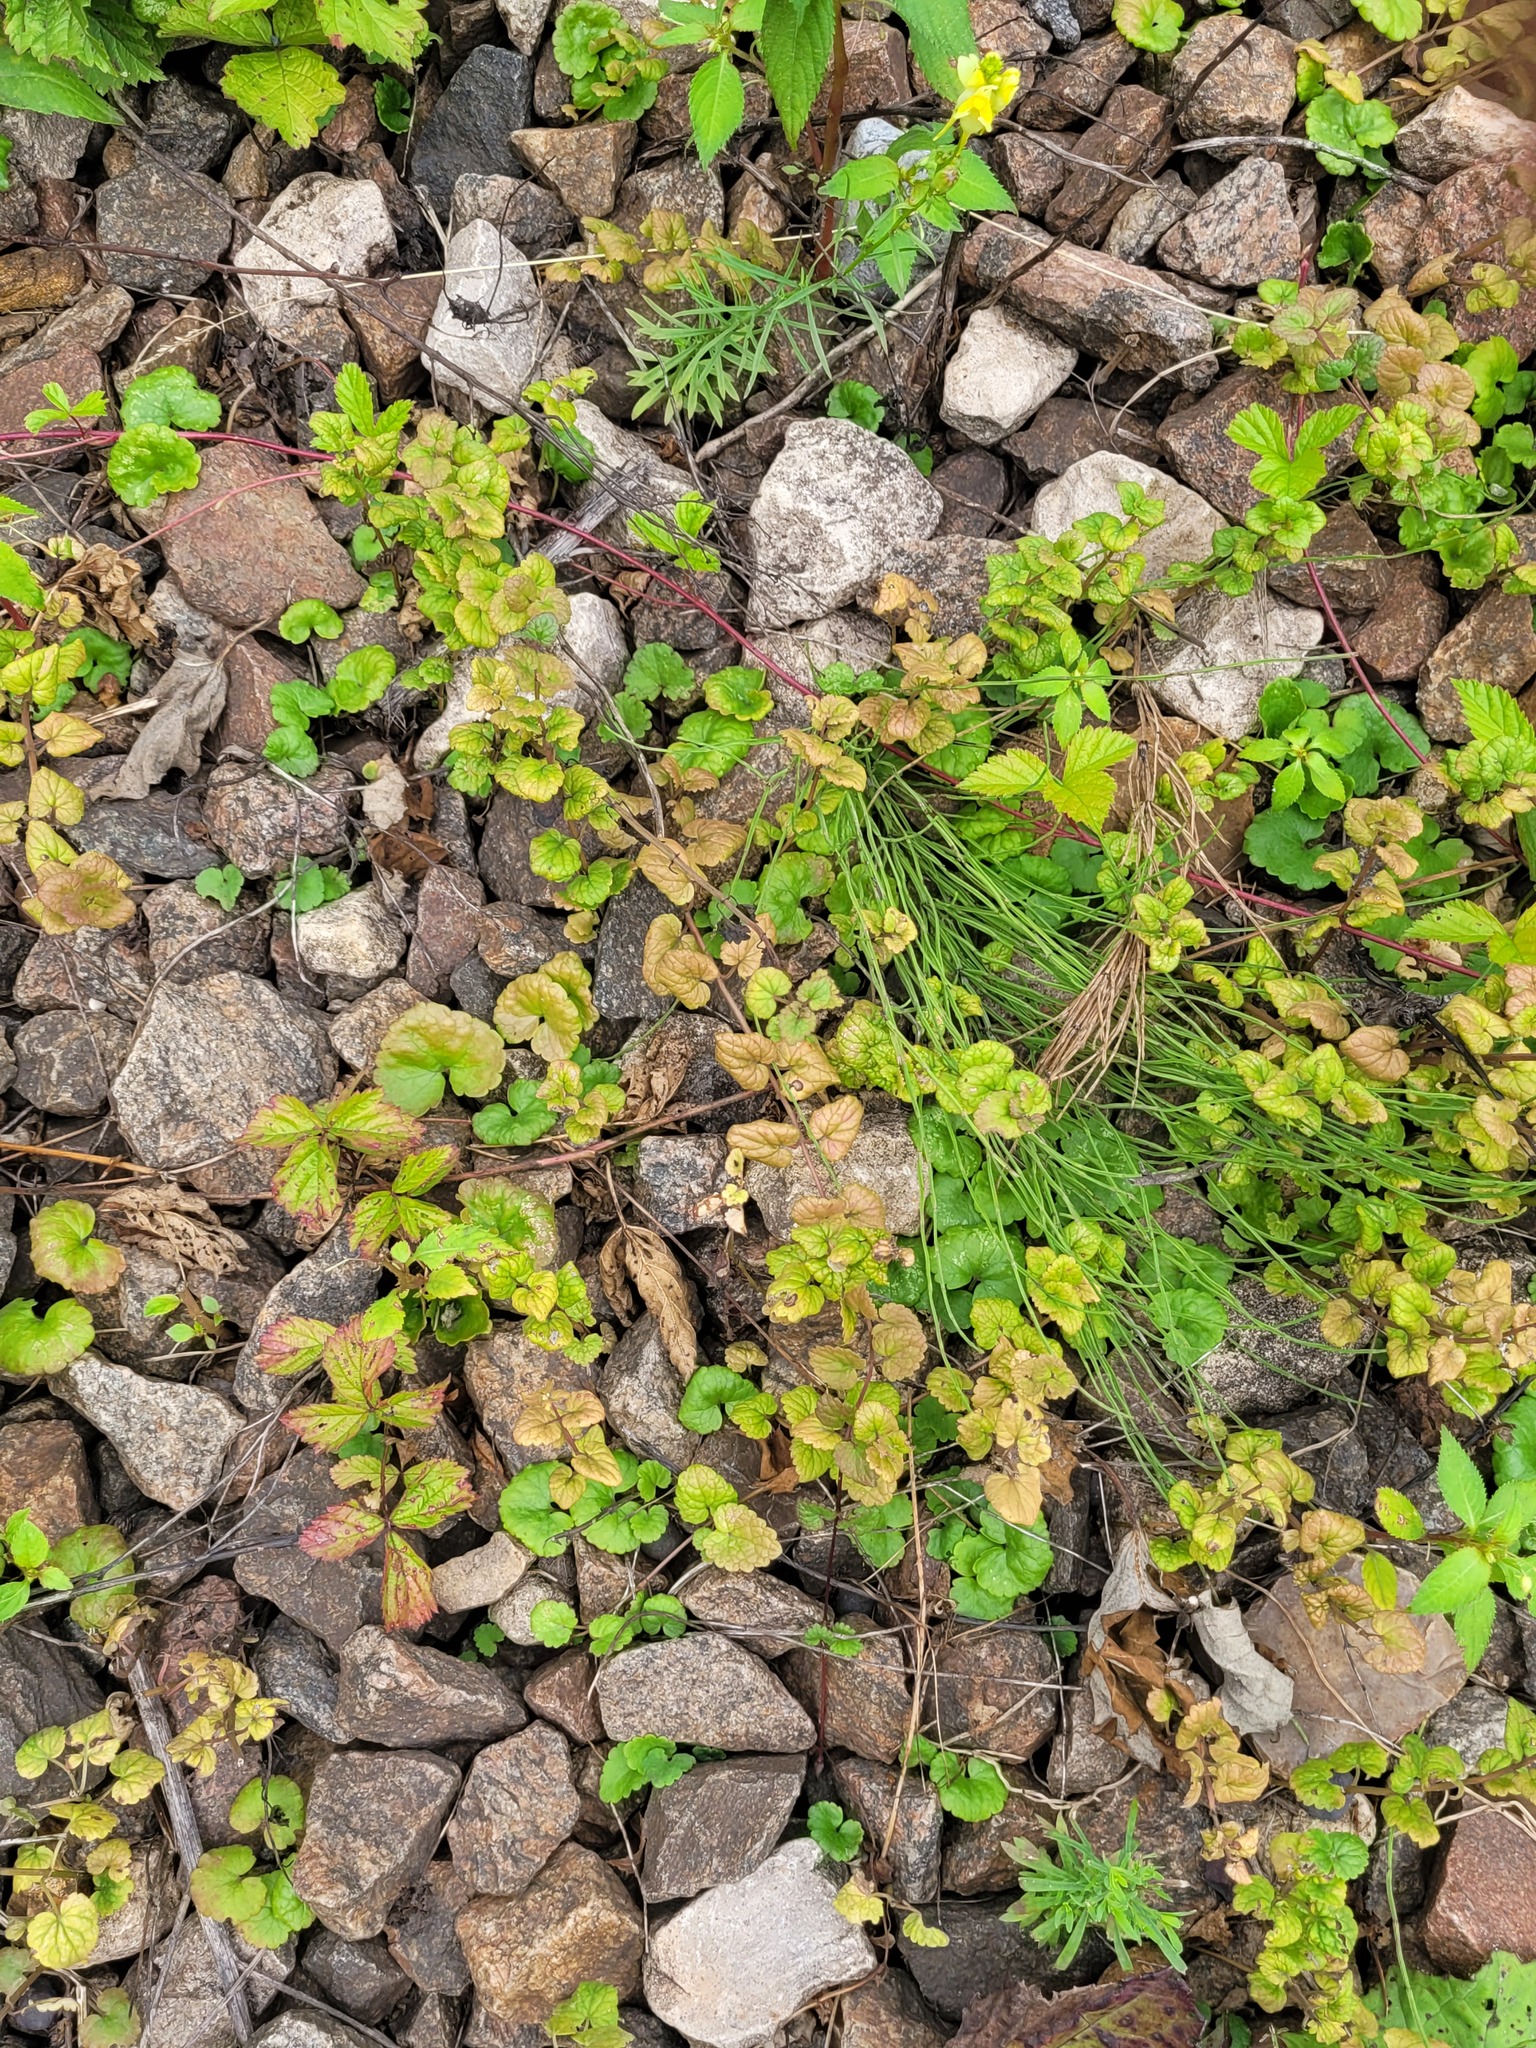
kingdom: Plantae
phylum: Tracheophyta
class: Magnoliopsida
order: Lamiales
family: Lamiaceae
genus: Glechoma
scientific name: Glechoma hederacea
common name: Ground ivy
